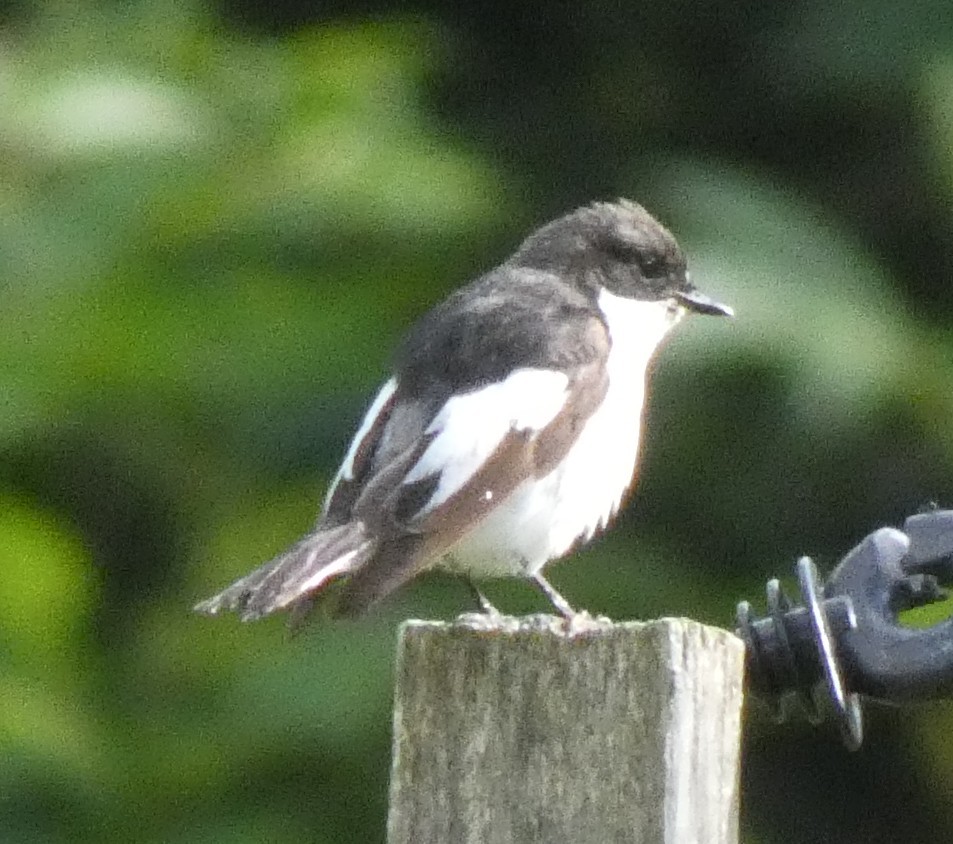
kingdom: Animalia
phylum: Chordata
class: Aves
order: Passeriformes
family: Muscicapidae
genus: Ficedula
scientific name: Ficedula hypoleuca
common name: European pied flycatcher
